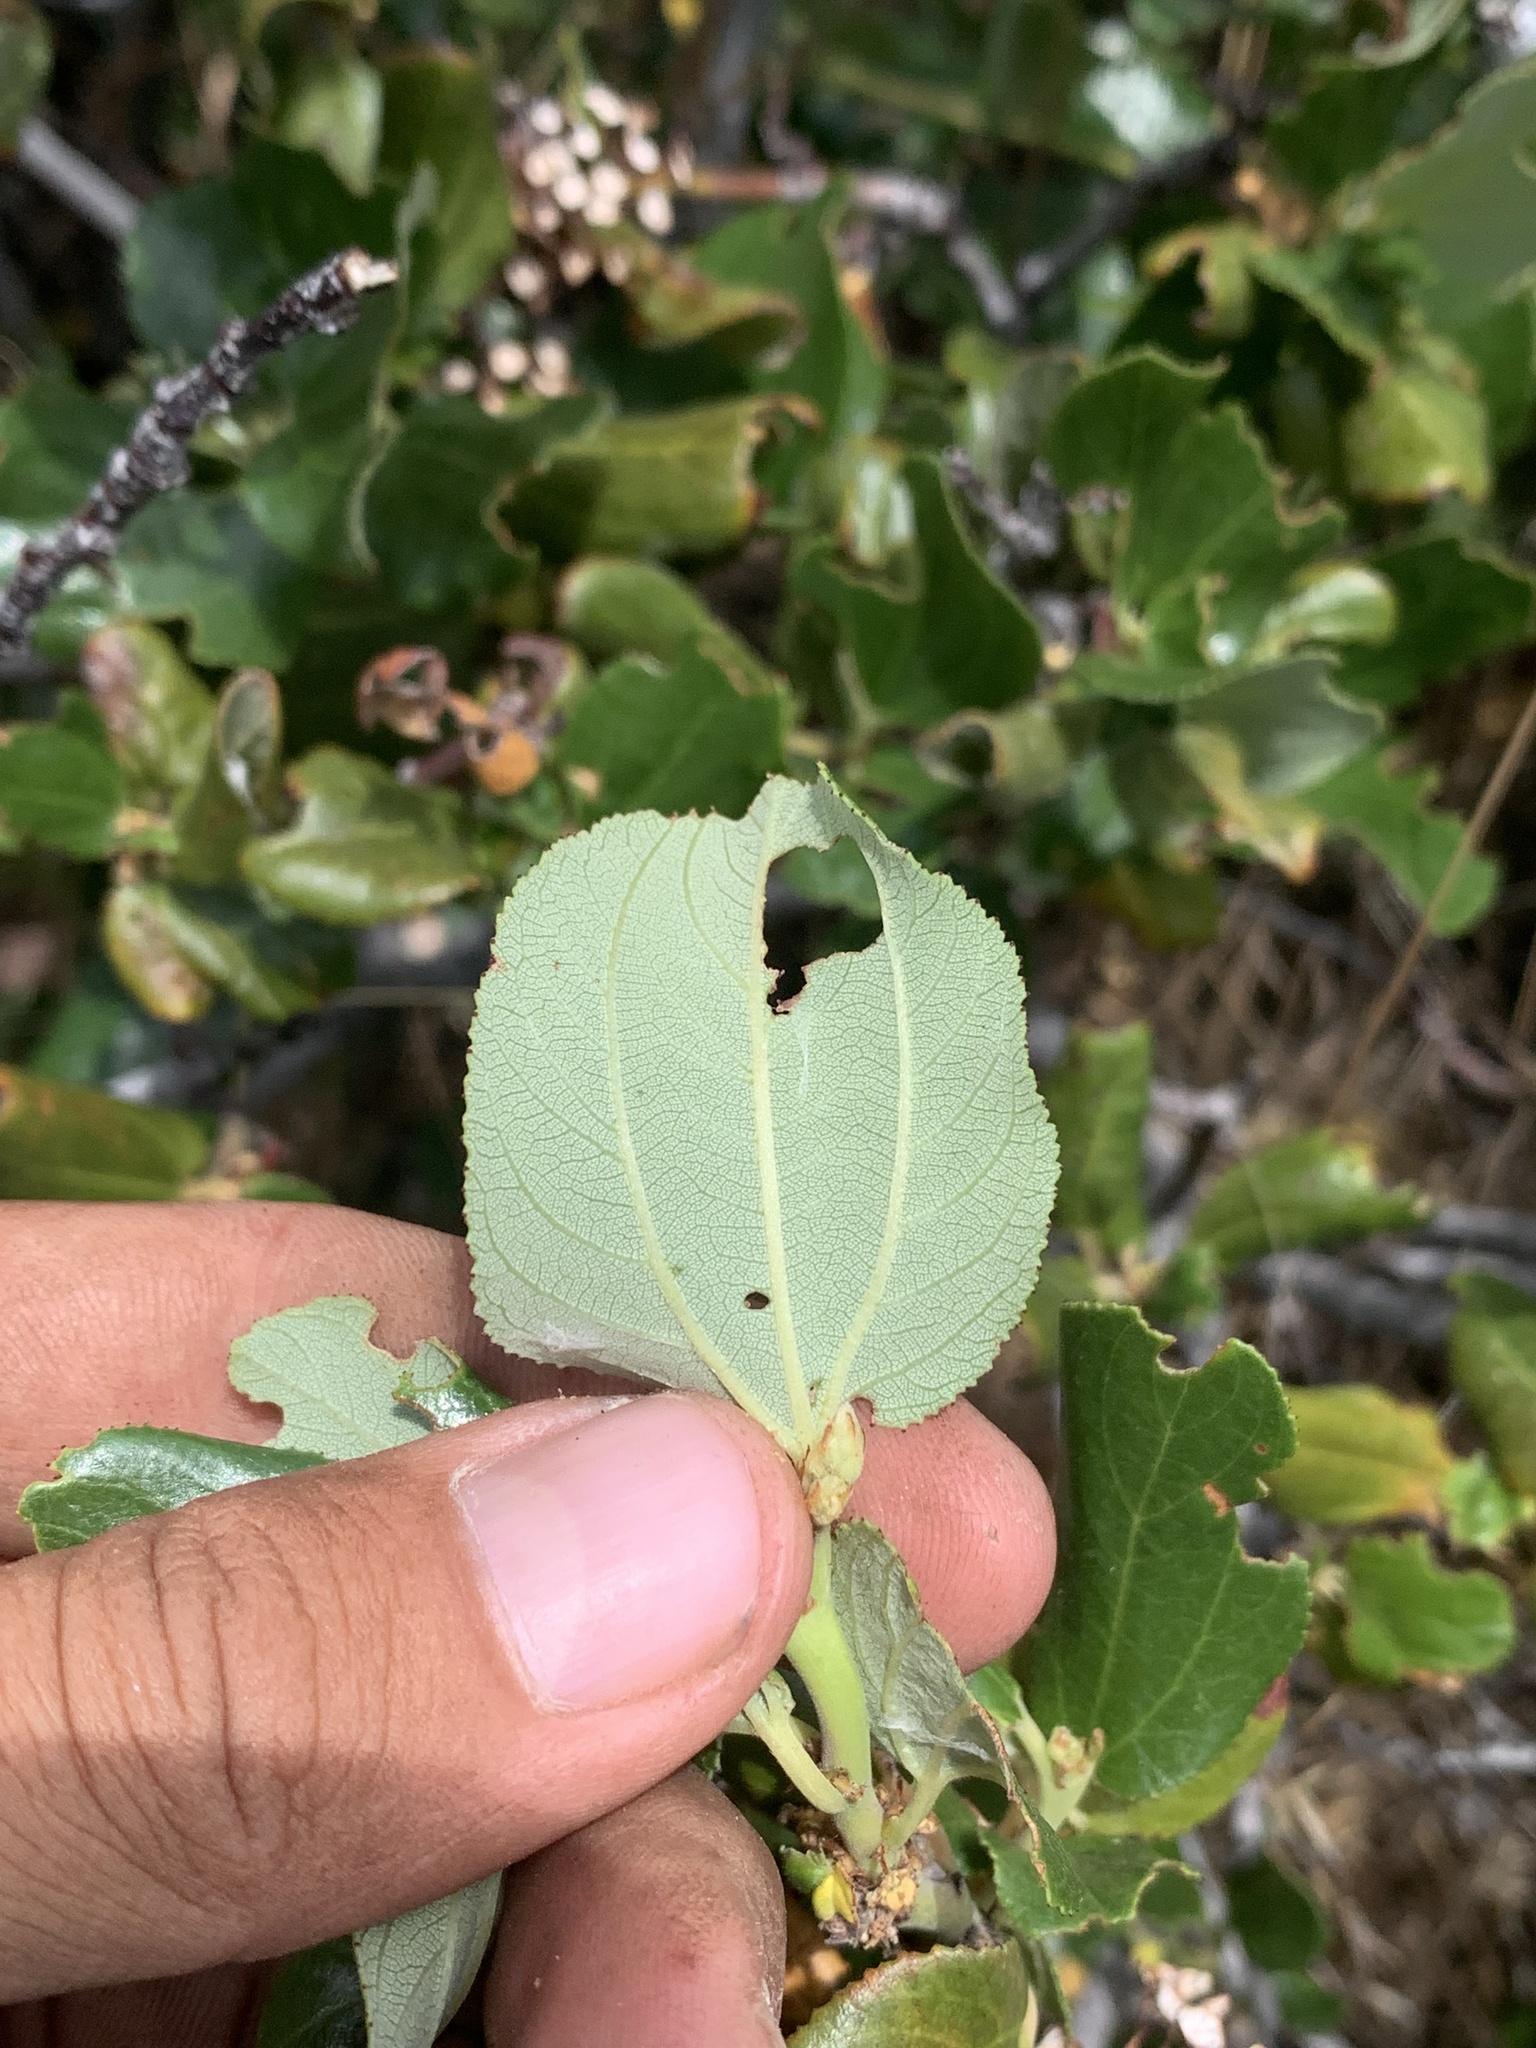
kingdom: Plantae
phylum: Tracheophyta
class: Magnoliopsida
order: Rosales
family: Rhamnaceae
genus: Ceanothus
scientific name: Ceanothus velutinus
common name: Snowbrush
